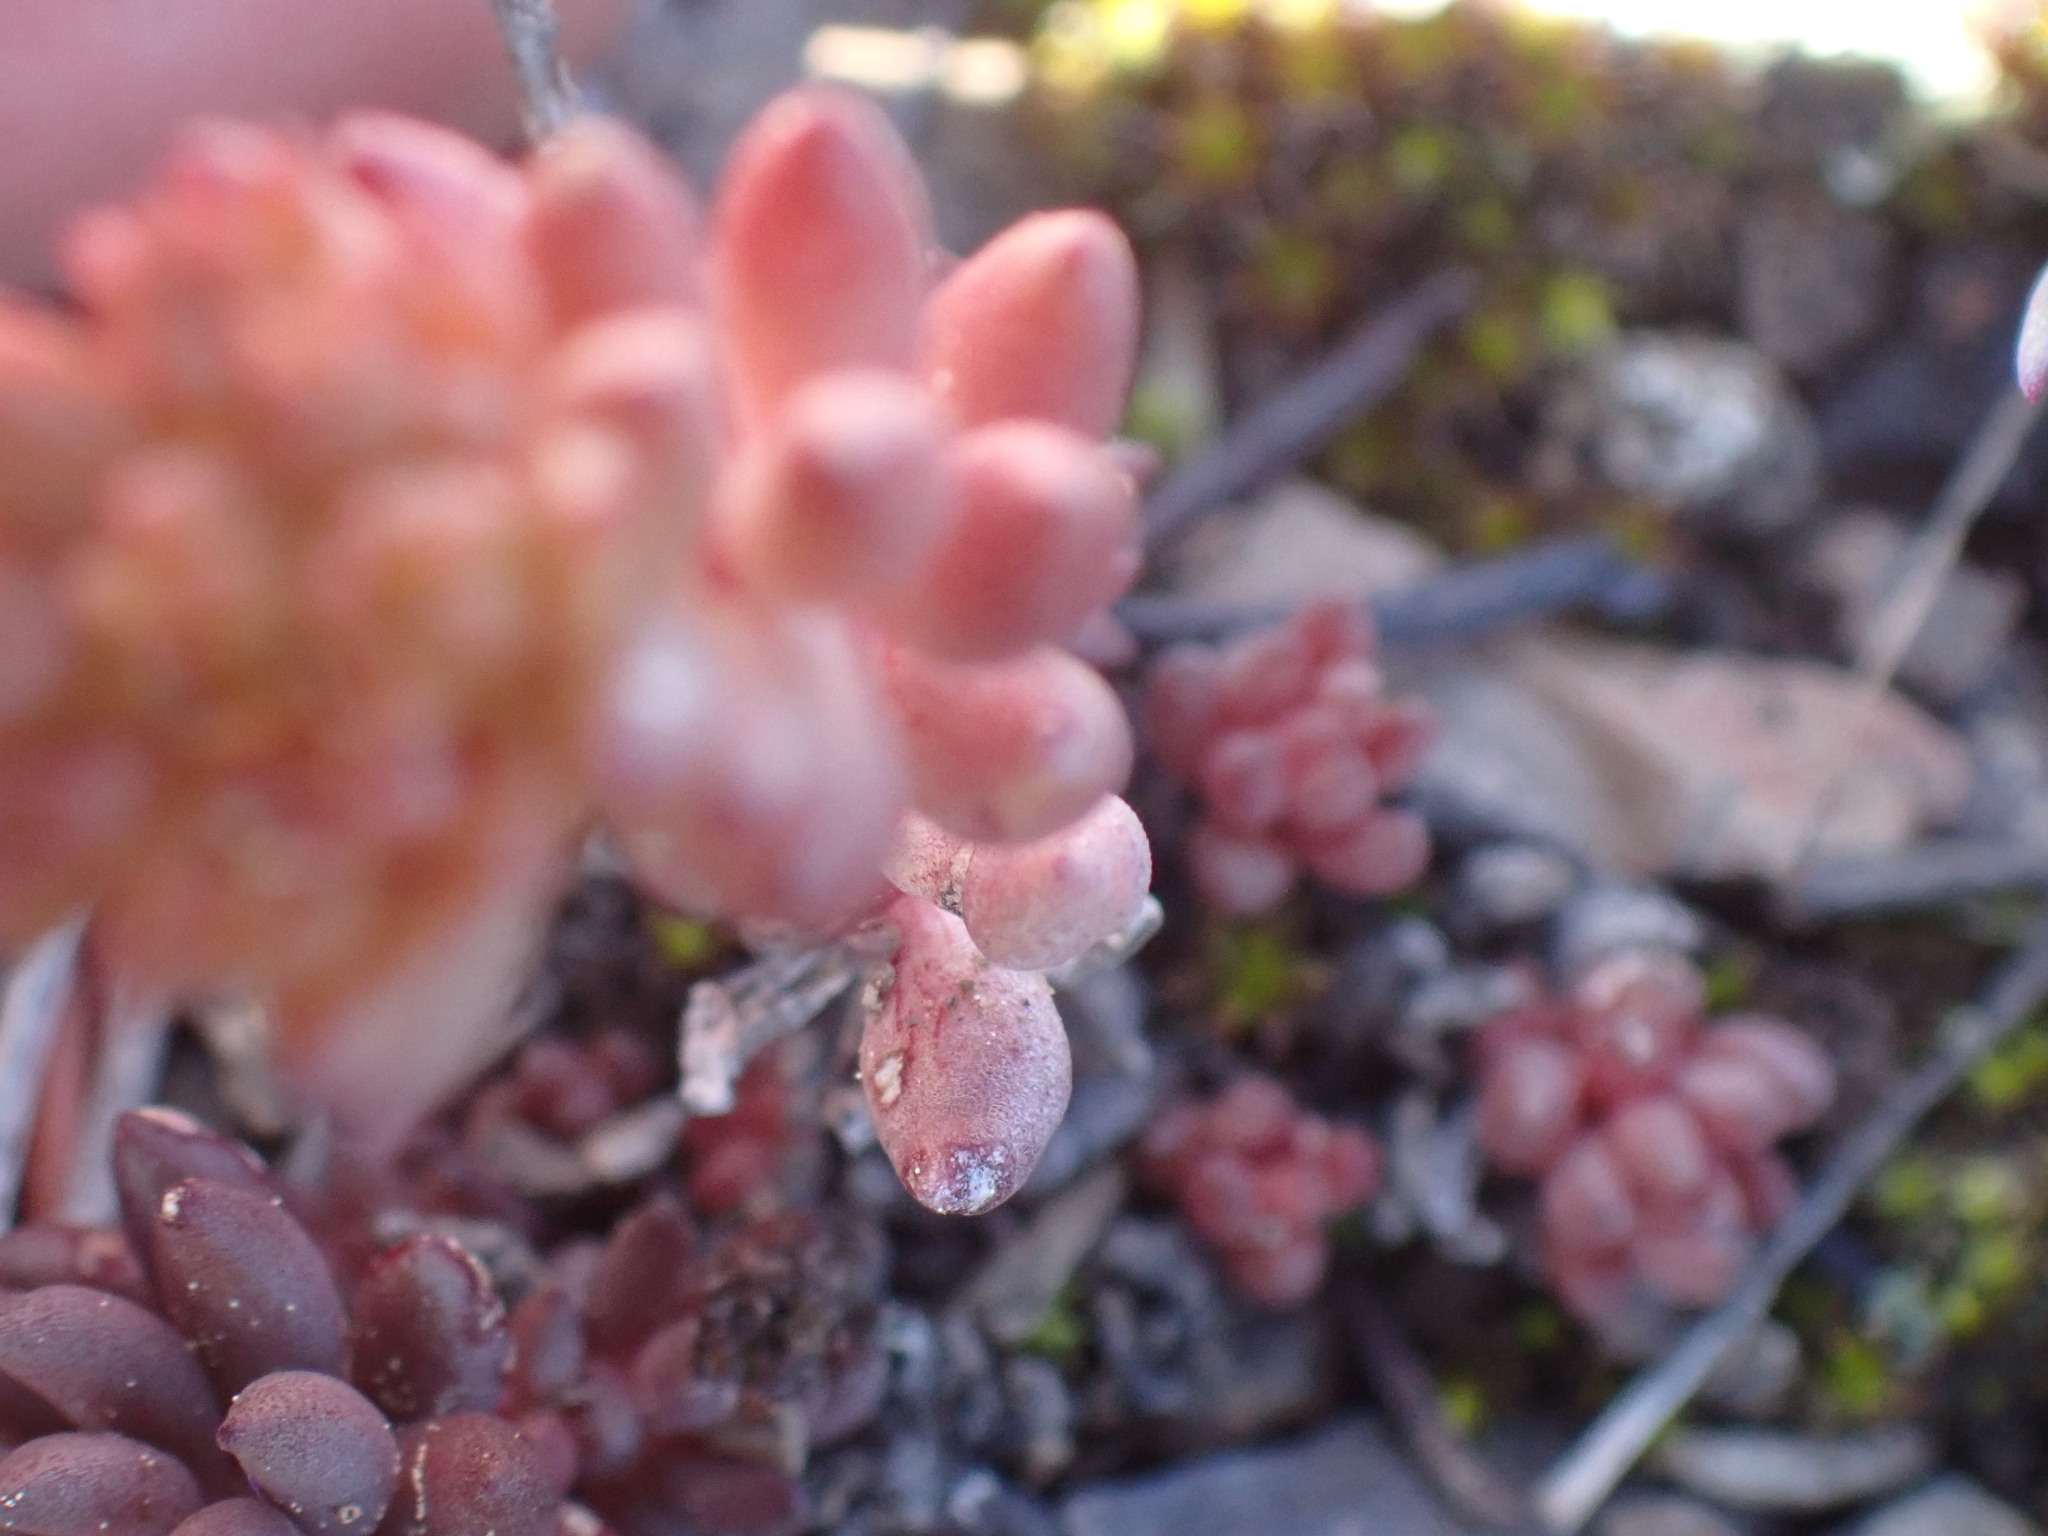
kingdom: Plantae
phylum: Tracheophyta
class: Magnoliopsida
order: Saxifragales
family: Crassulaceae
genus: Sedum
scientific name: Sedum lanceolatum
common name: Common stonecrop
